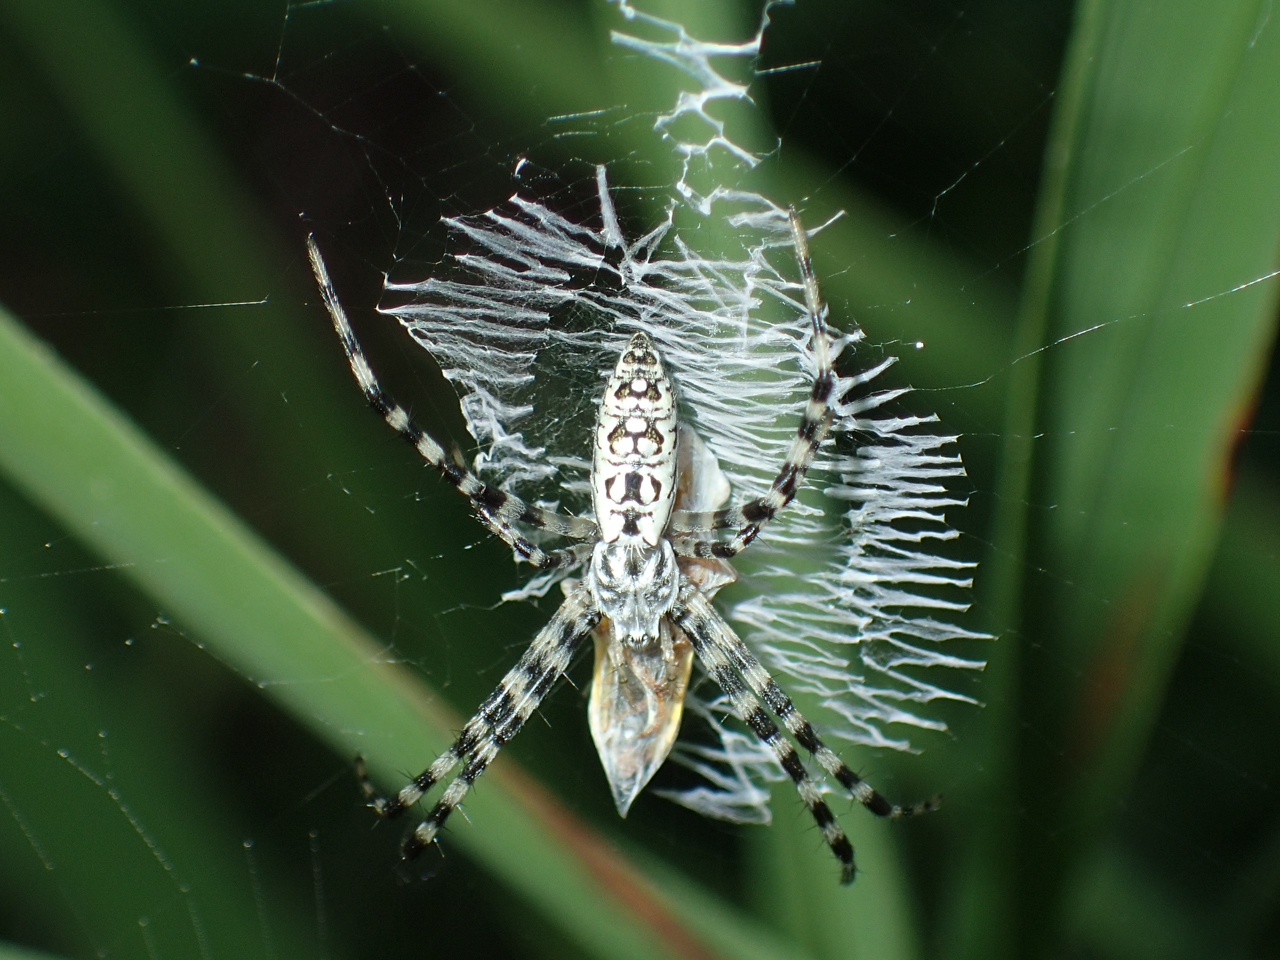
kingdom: Animalia
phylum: Arthropoda
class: Arachnida
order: Araneae
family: Araneidae
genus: Argiope
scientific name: Argiope aurantia
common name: Orb weavers
